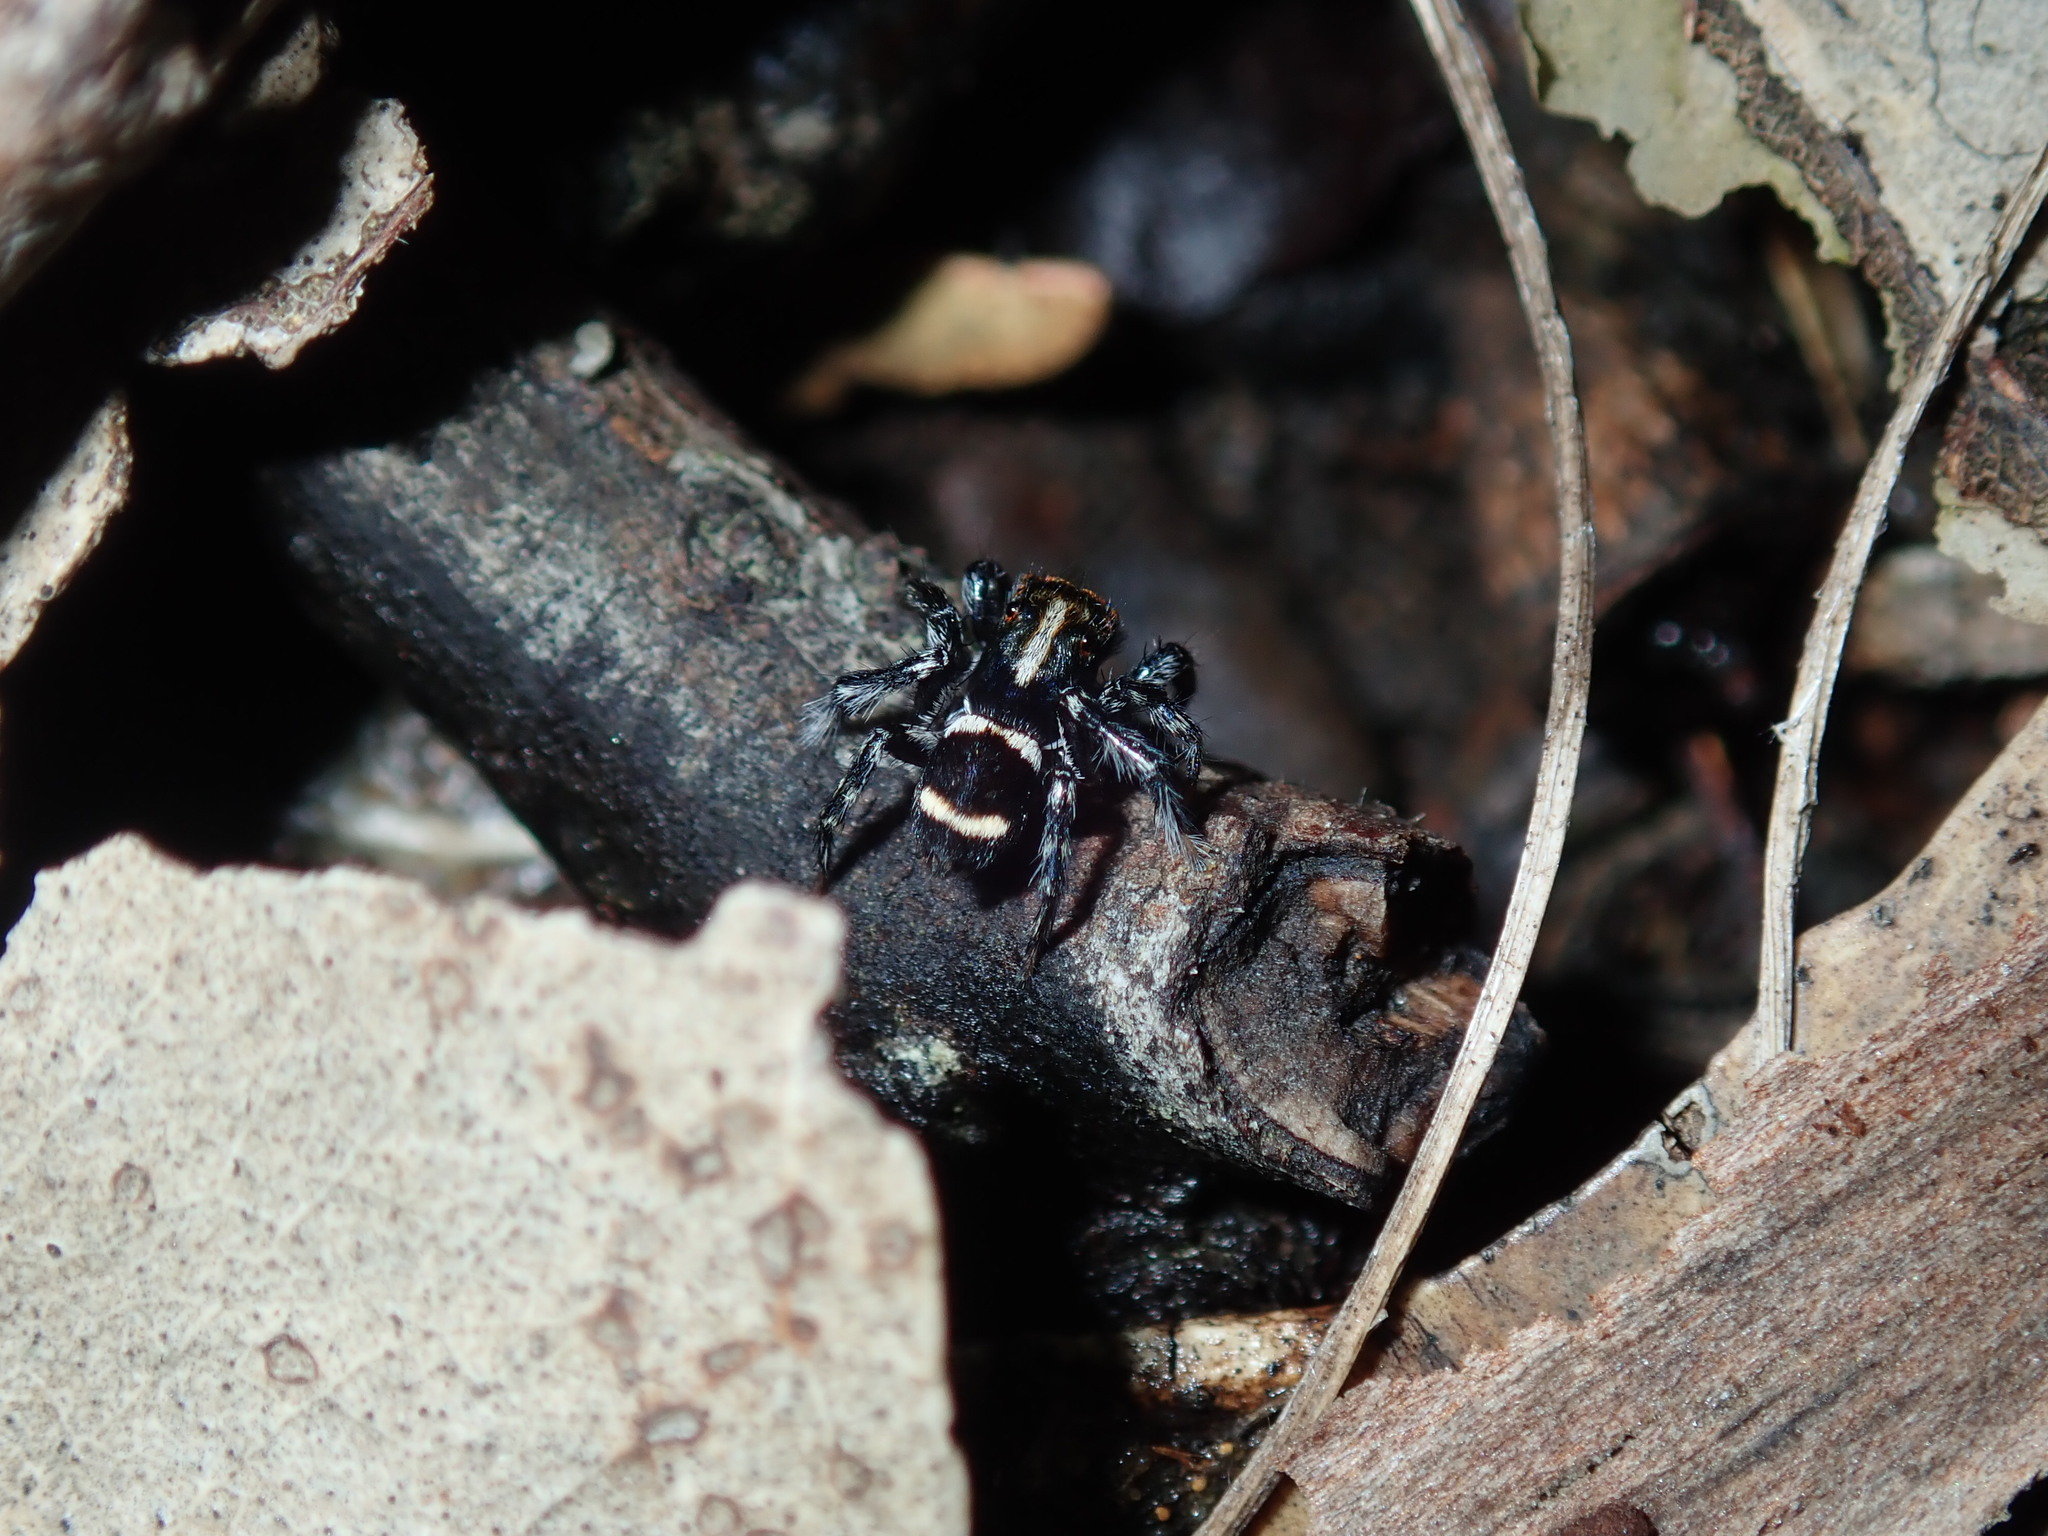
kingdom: Animalia
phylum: Arthropoda
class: Arachnida
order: Araneae
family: Salticidae
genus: Saitis
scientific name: Saitis virgatus
